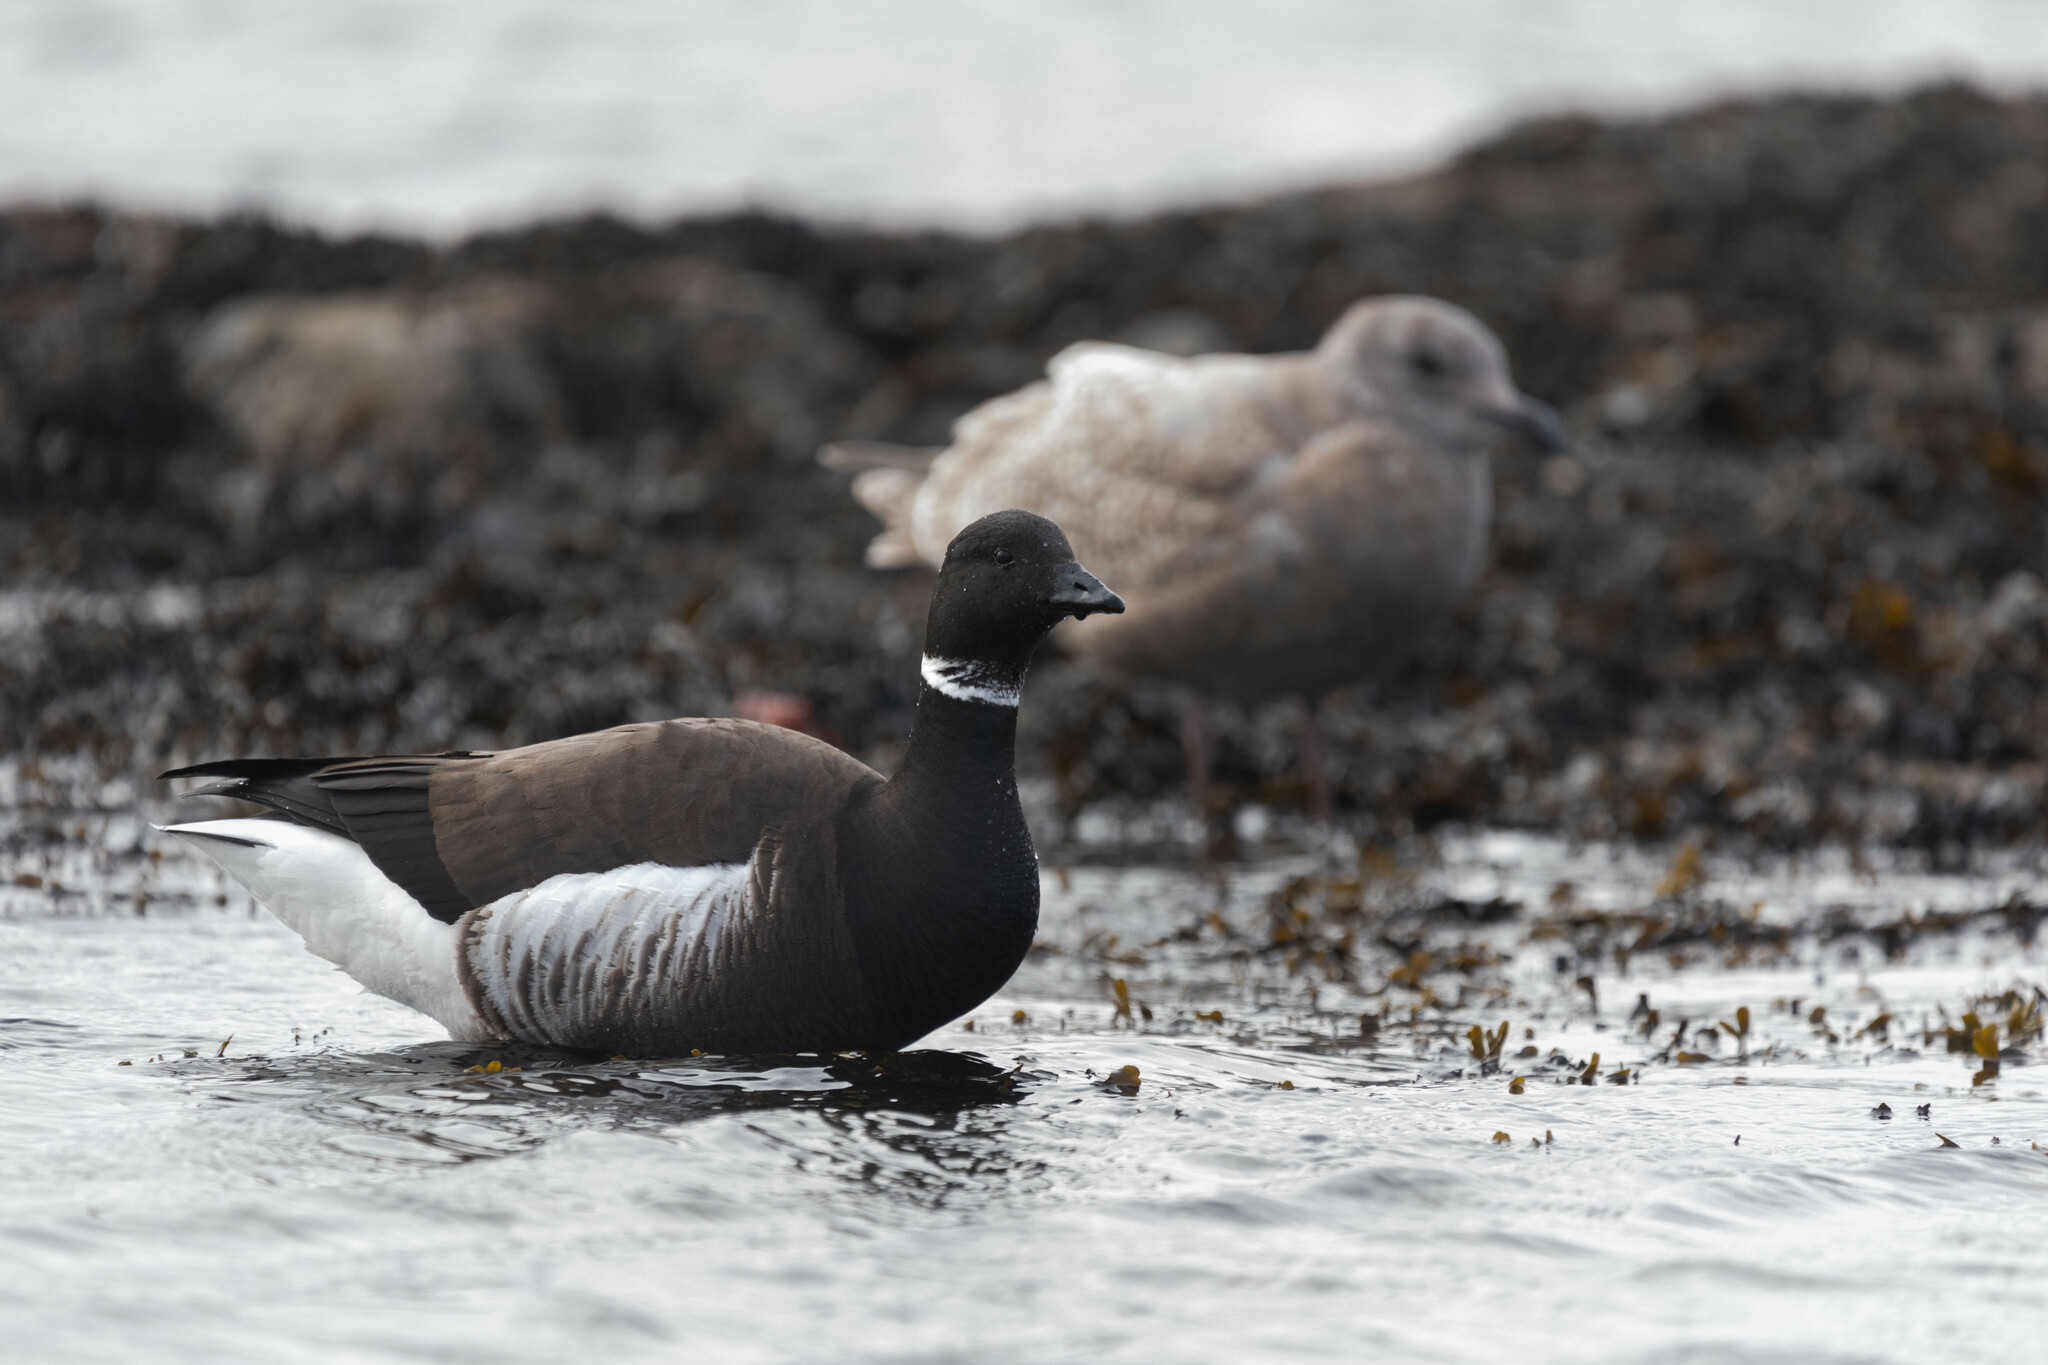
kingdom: Animalia
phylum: Chordata
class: Aves
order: Anseriformes
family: Anatidae
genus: Branta
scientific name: Branta bernicla
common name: Brant goose
